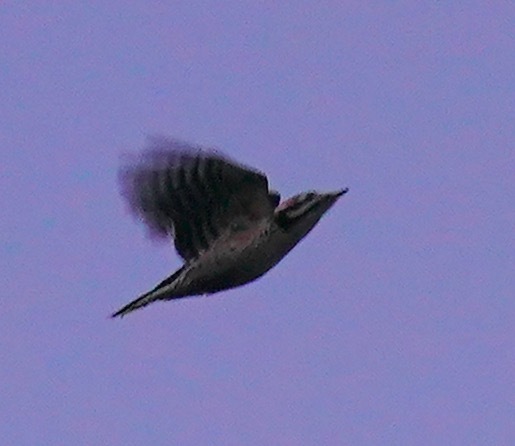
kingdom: Animalia
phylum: Chordata
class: Aves
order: Piciformes
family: Picidae
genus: Dryobates
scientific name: Dryobates nuttallii
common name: Nuttall's woodpecker
